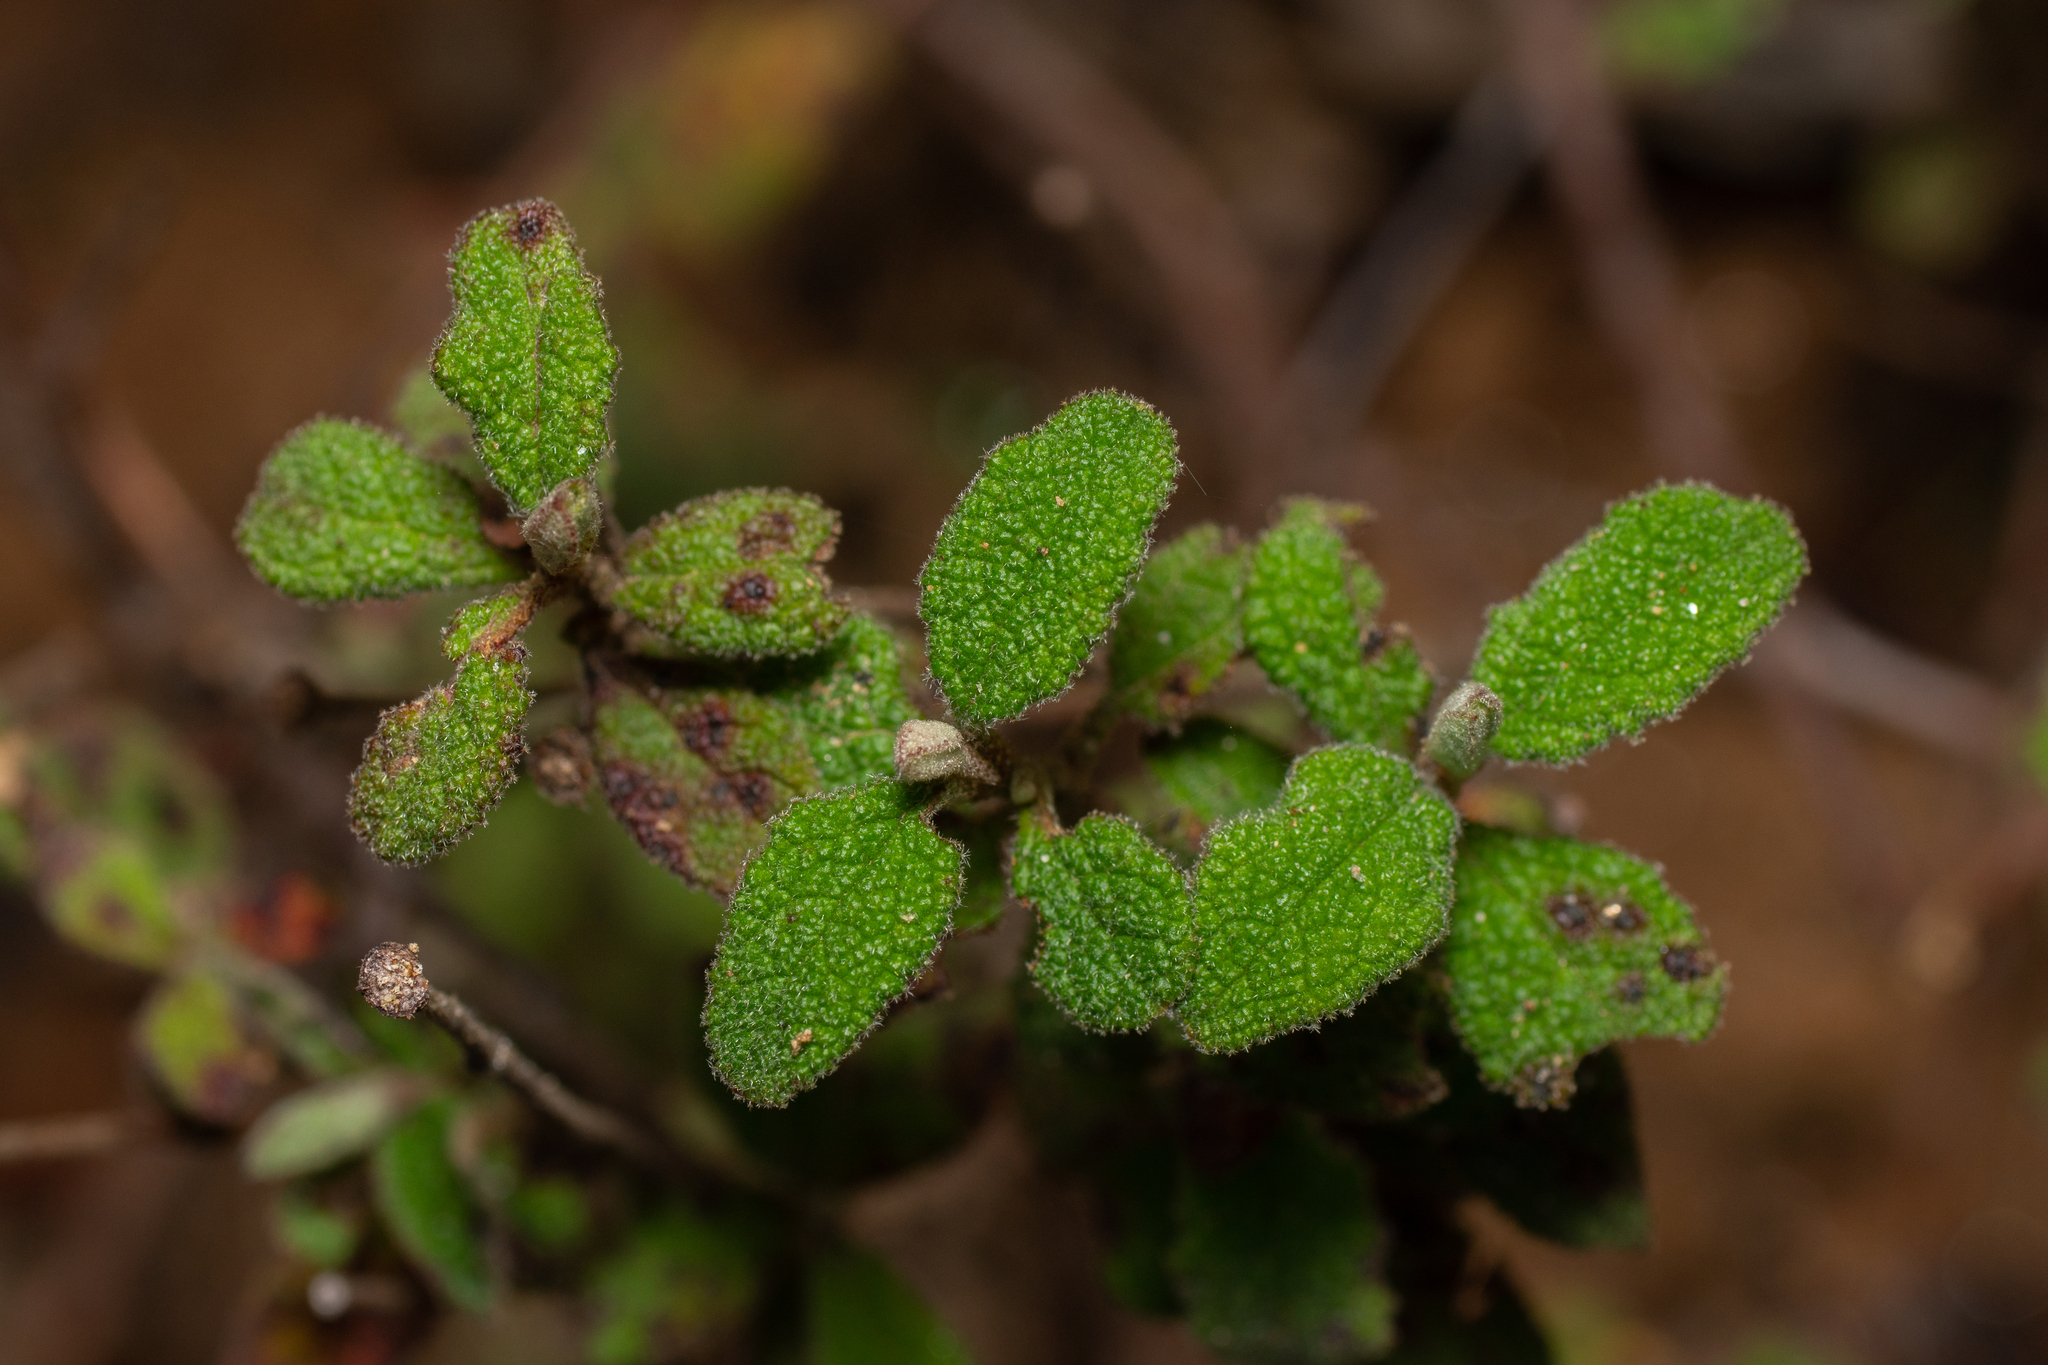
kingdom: Plantae
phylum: Tracheophyta
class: Magnoliopsida
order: Malvales
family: Cistaceae
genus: Cistus
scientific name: Cistus salviifolius
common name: Salvia cistus
